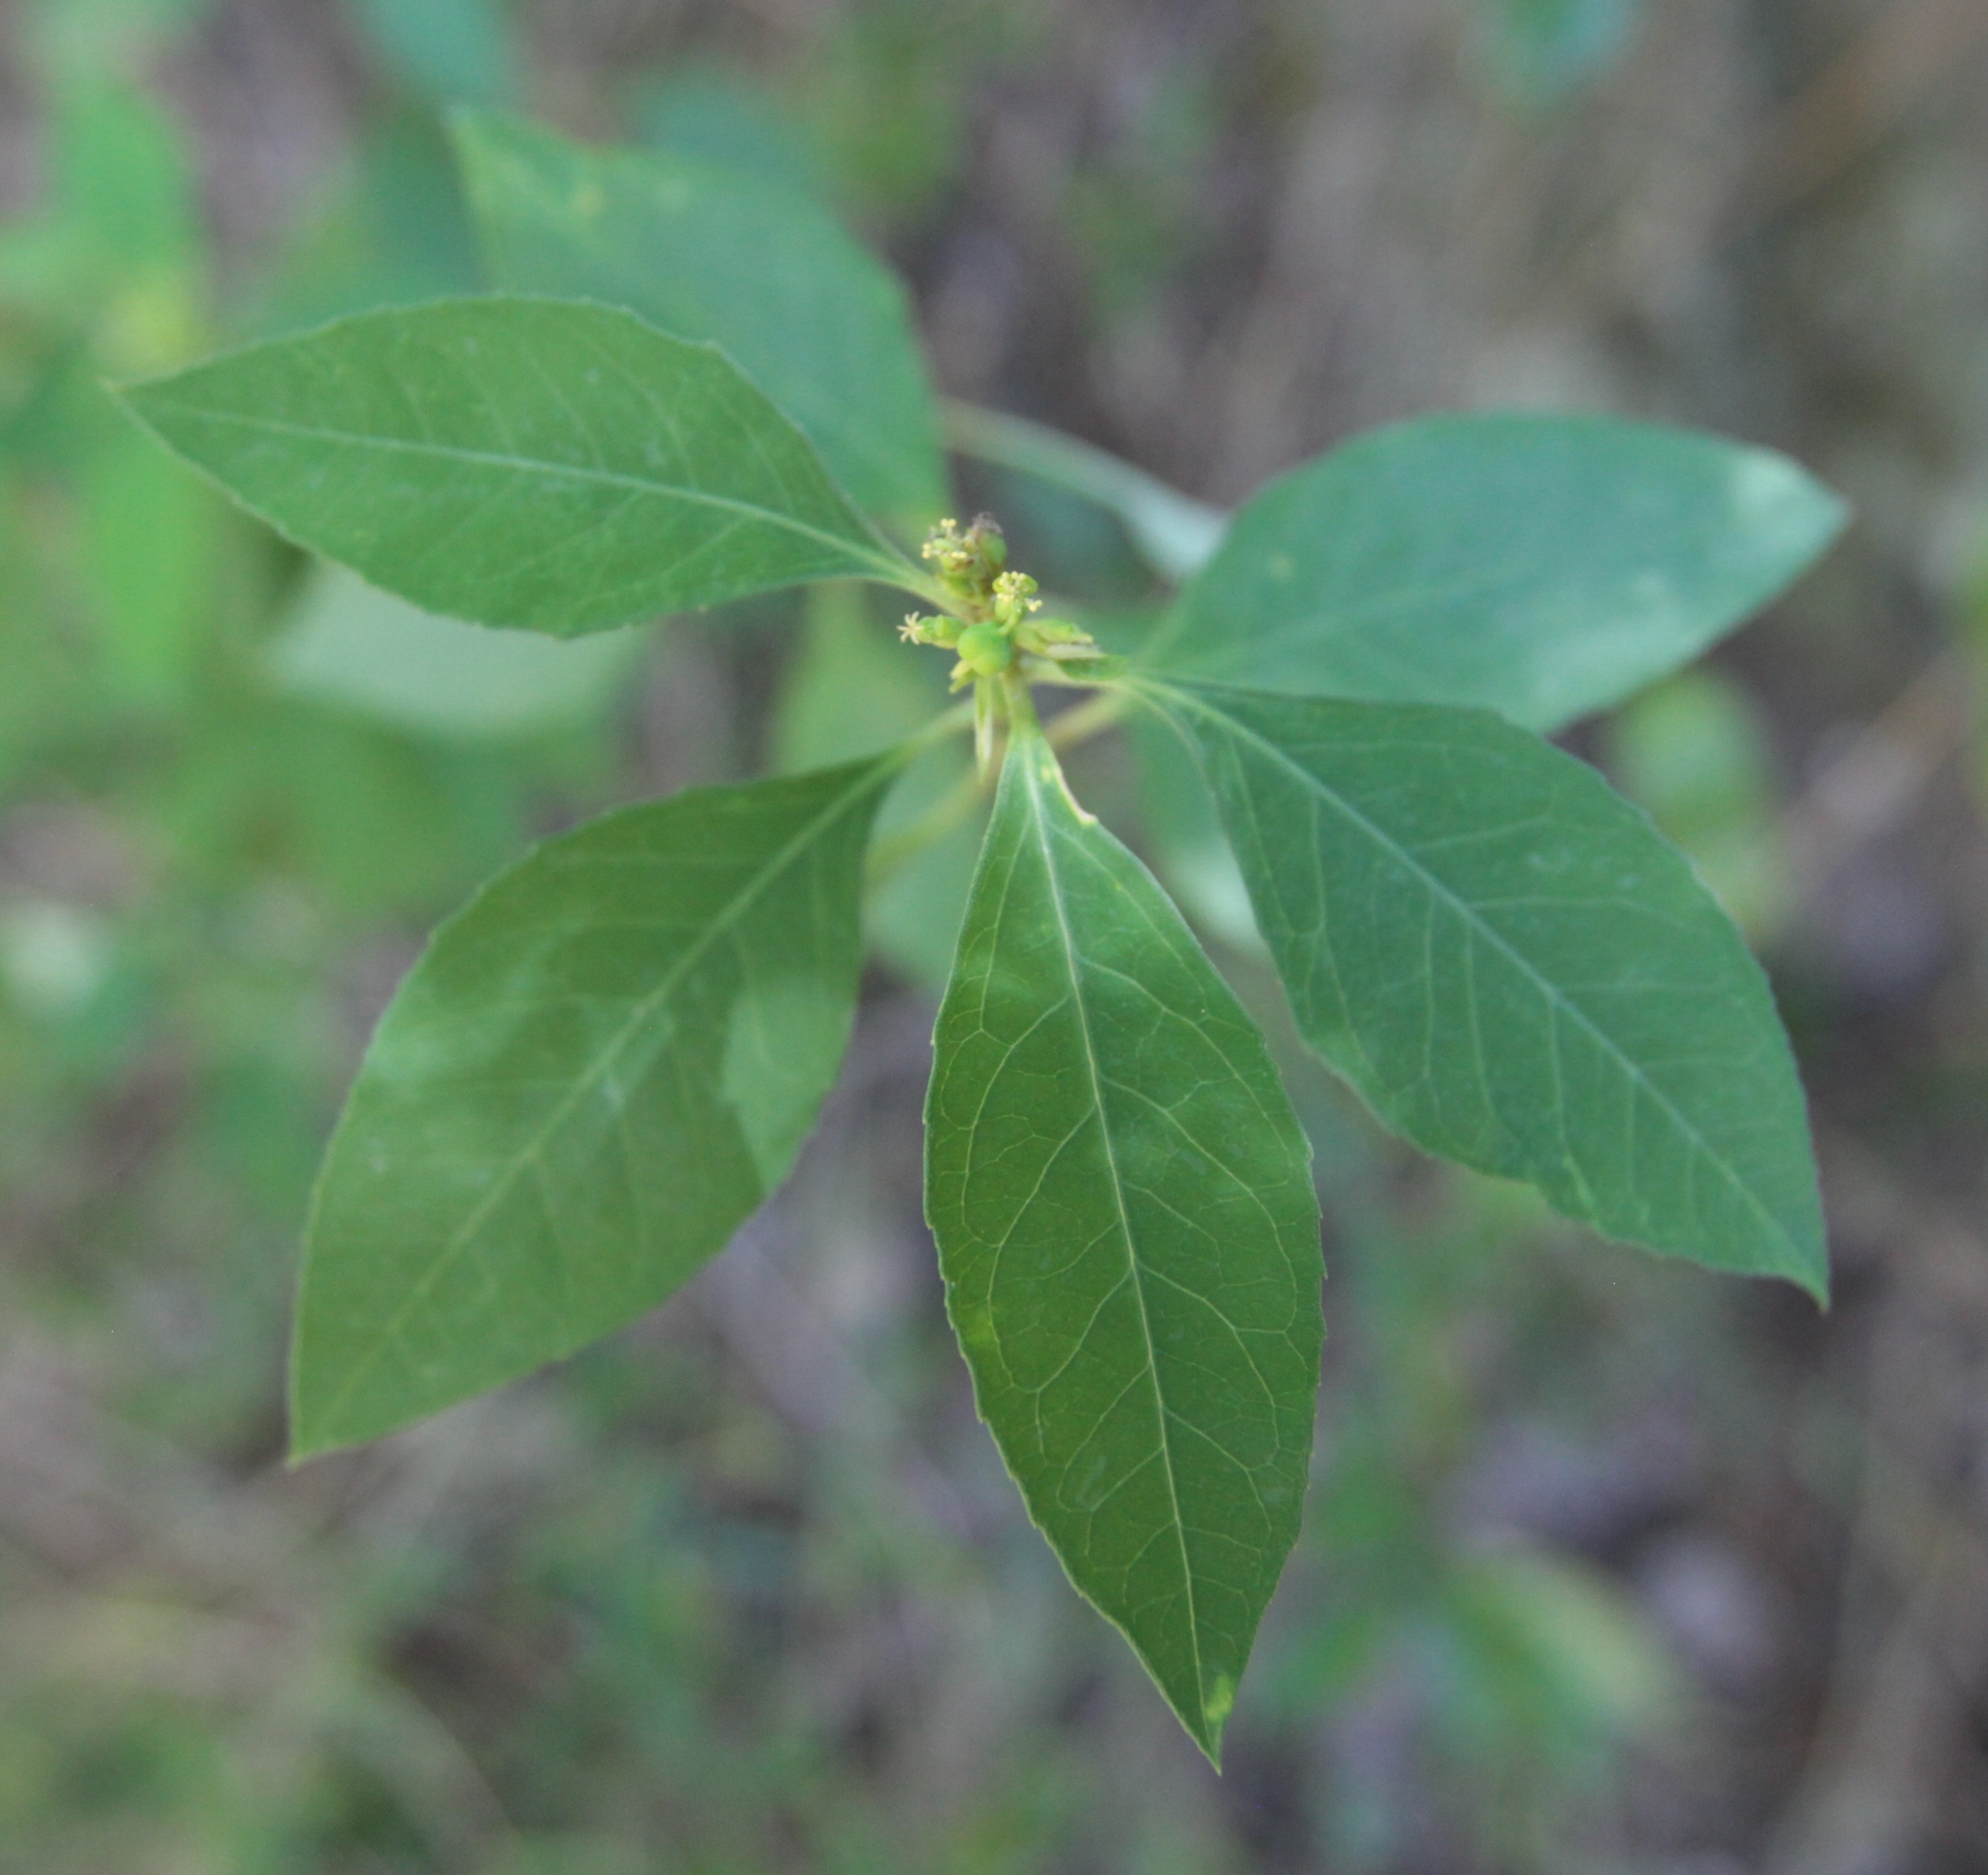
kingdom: Plantae
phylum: Tracheophyta
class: Magnoliopsida
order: Malpighiales
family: Euphorbiaceae
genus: Euphorbia
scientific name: Euphorbia heterophylla
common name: Mexican fireplant
